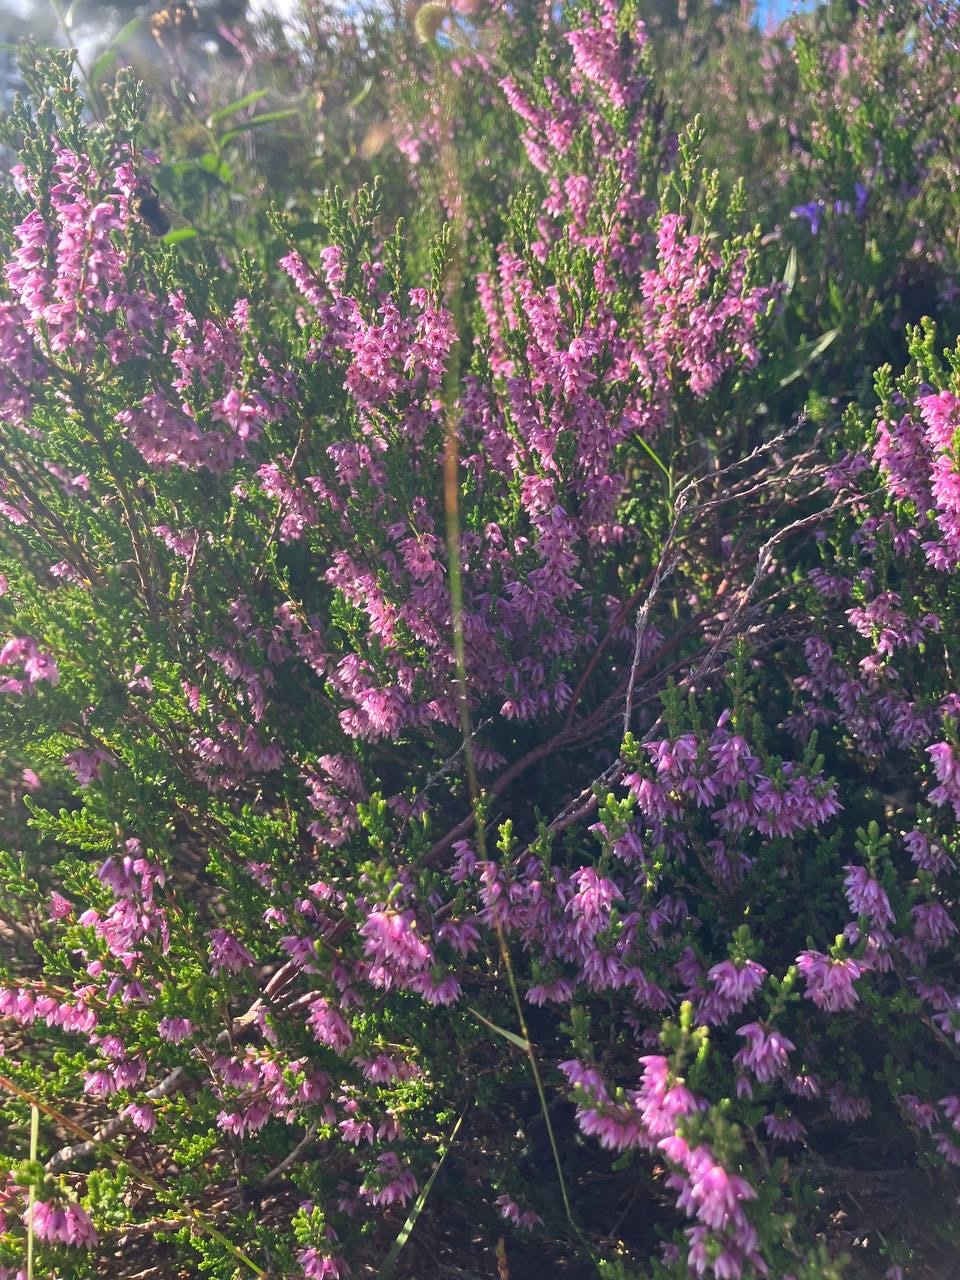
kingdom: Plantae
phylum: Tracheophyta
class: Magnoliopsida
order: Ericales
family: Ericaceae
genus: Calluna
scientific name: Calluna vulgaris
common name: Heather
